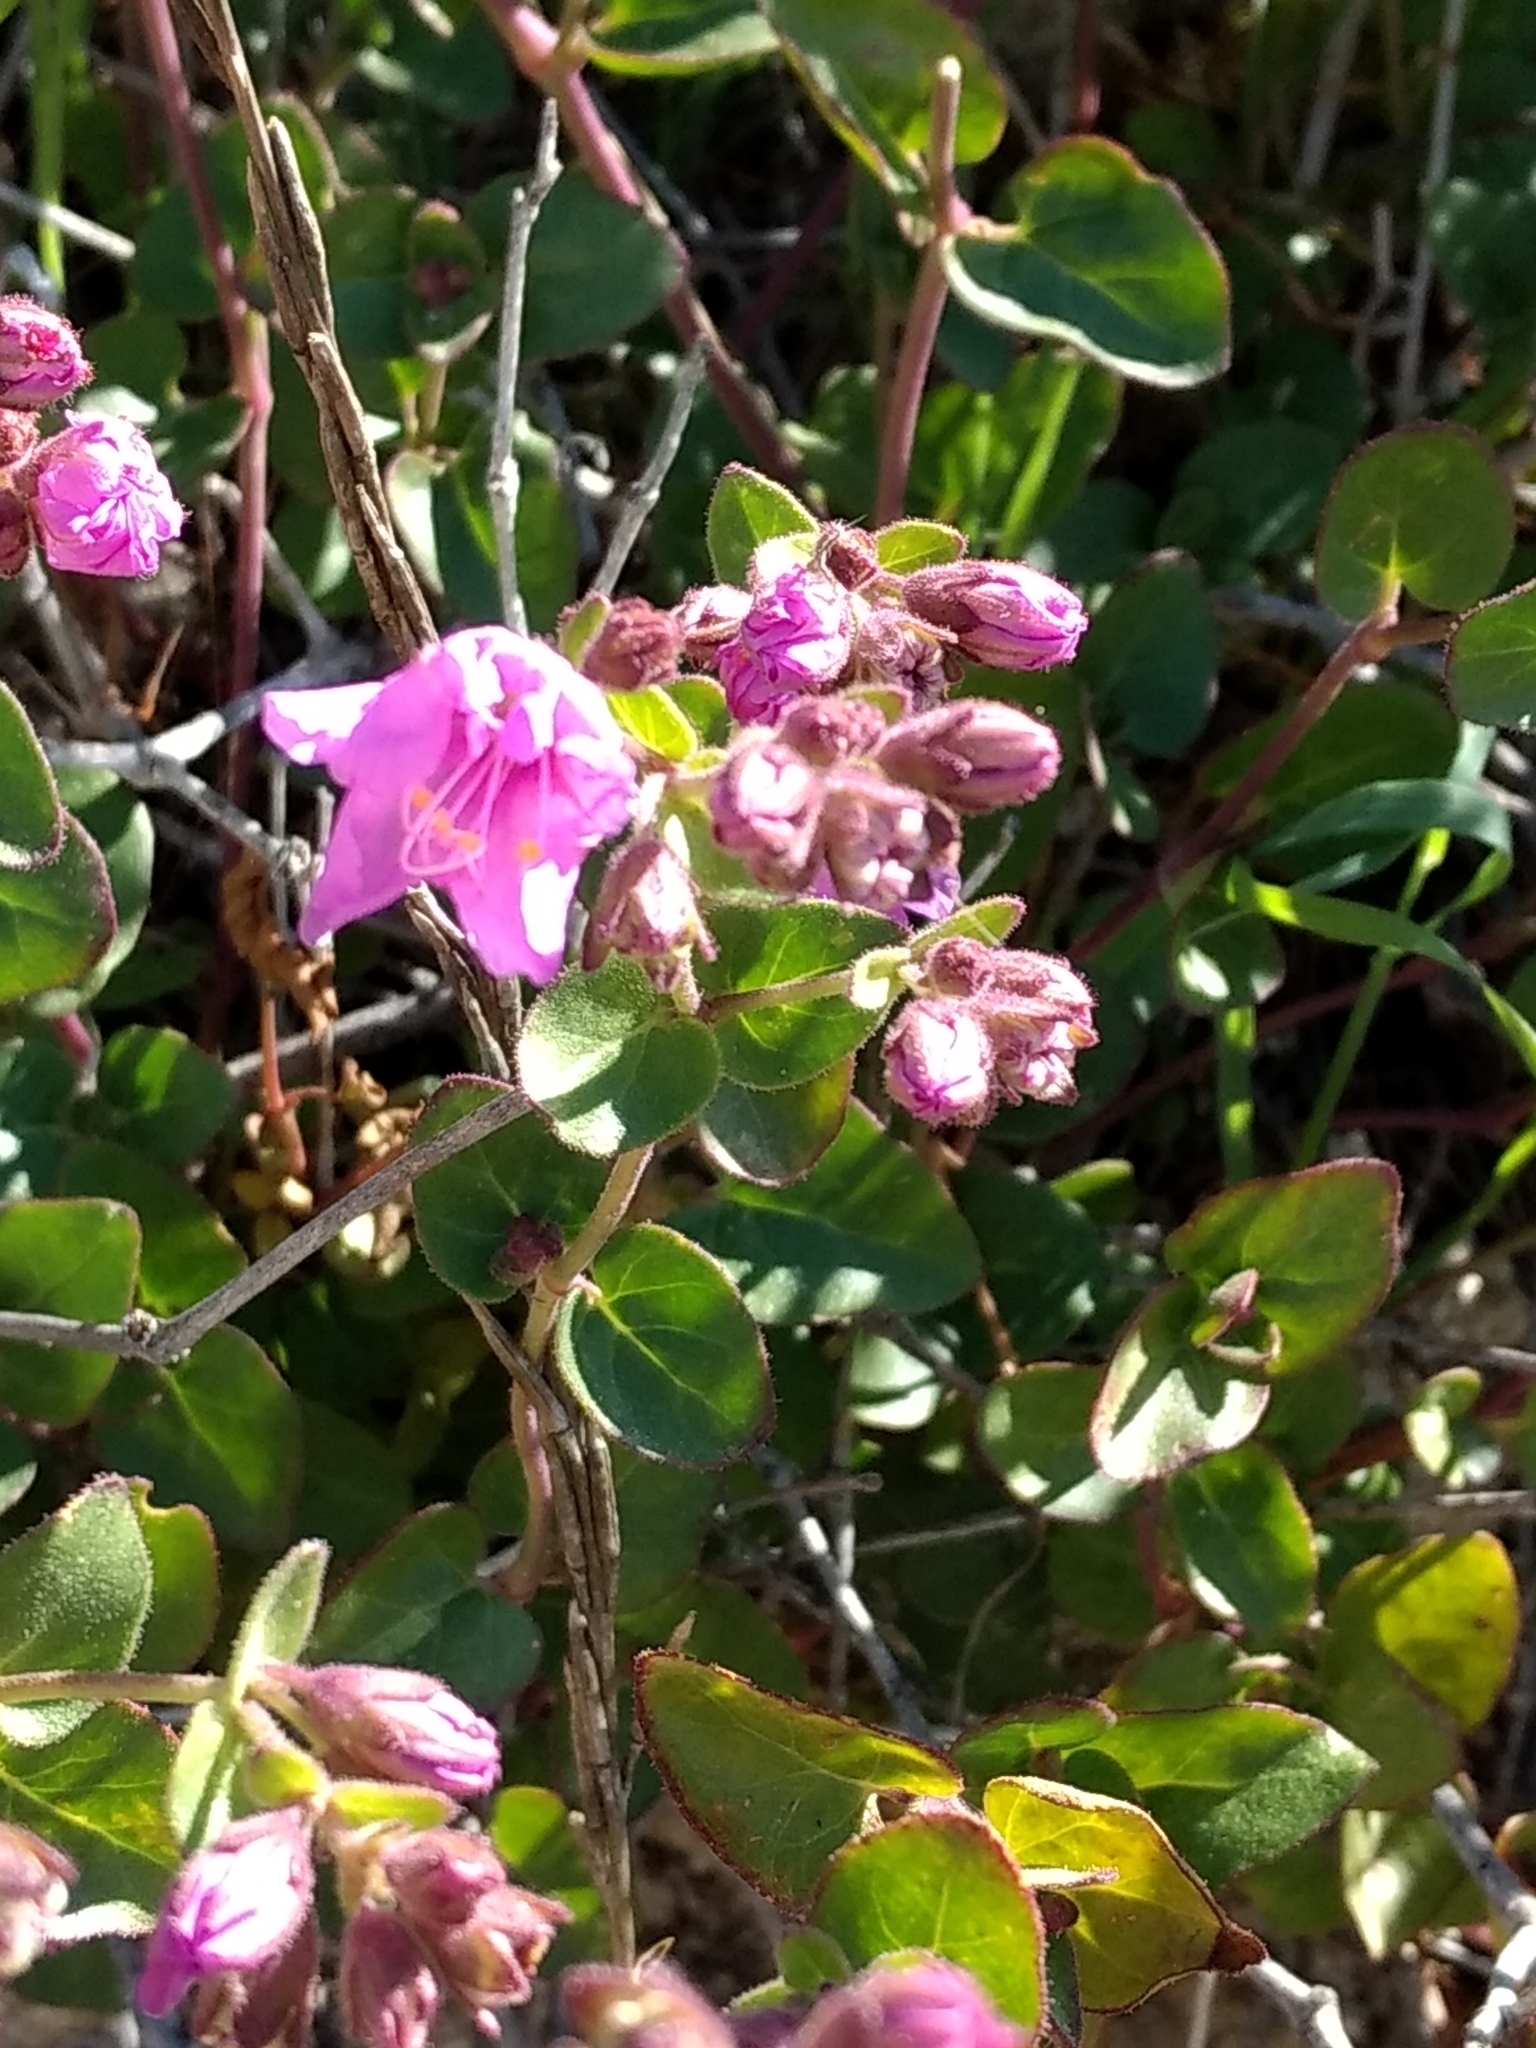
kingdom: Plantae
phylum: Tracheophyta
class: Magnoliopsida
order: Caryophyllales
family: Nyctaginaceae
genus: Mirabilis
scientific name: Mirabilis laevis
